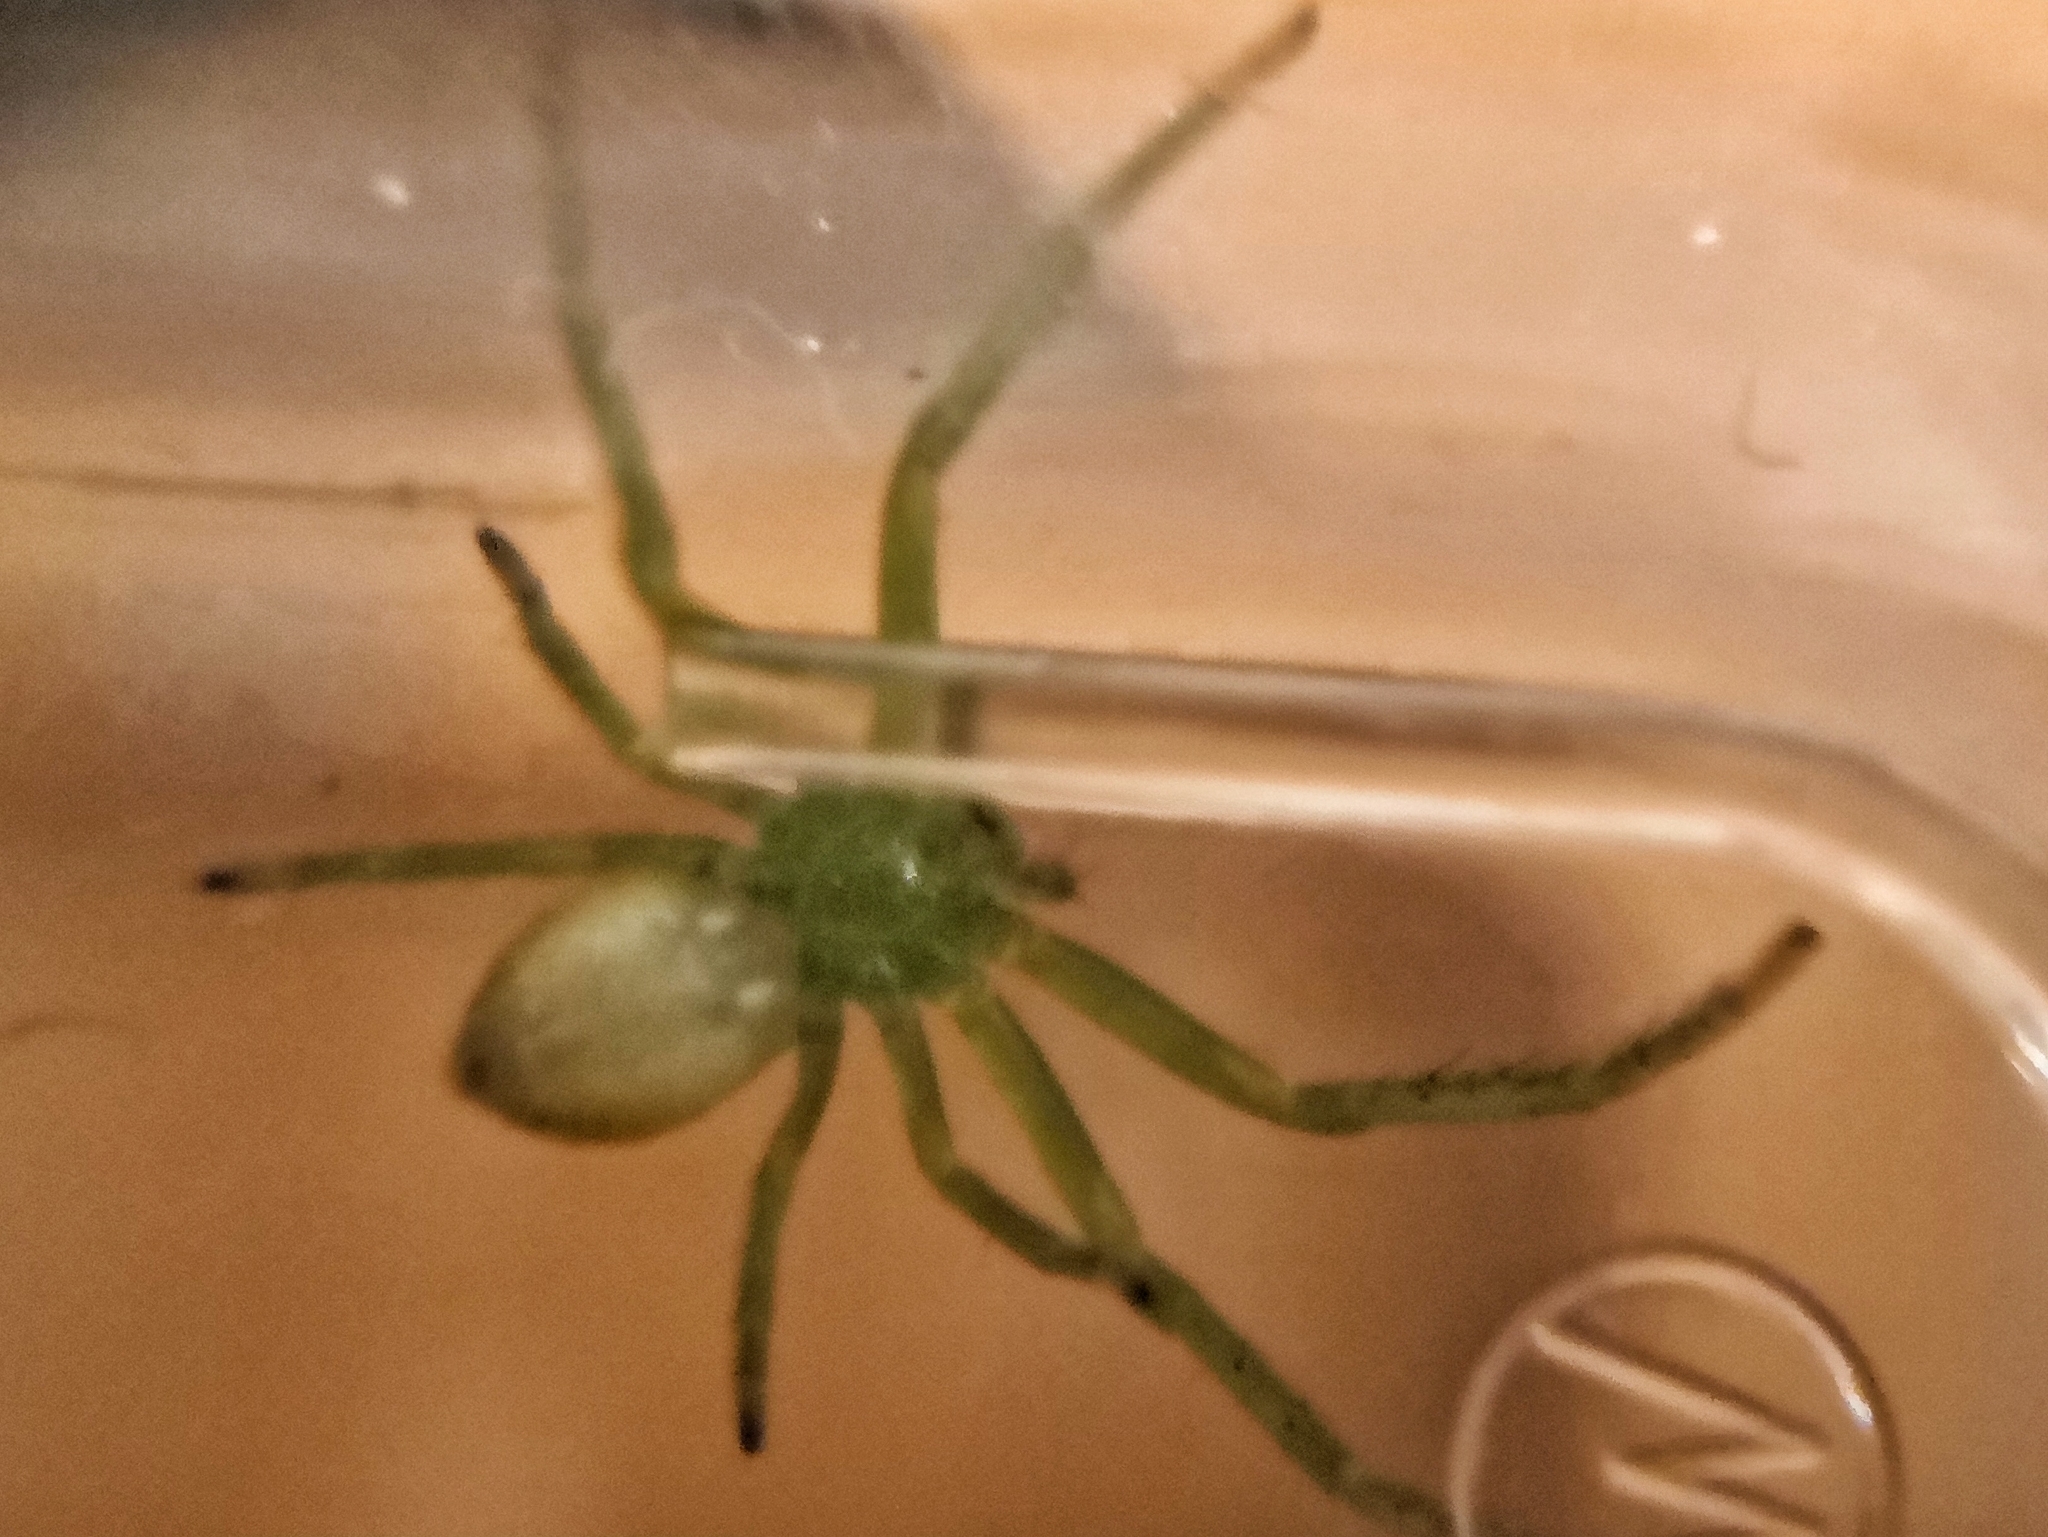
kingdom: Animalia
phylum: Arthropoda
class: Arachnida
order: Araneae
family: Thomisidae
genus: Diaea
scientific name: Diaea dorsata
